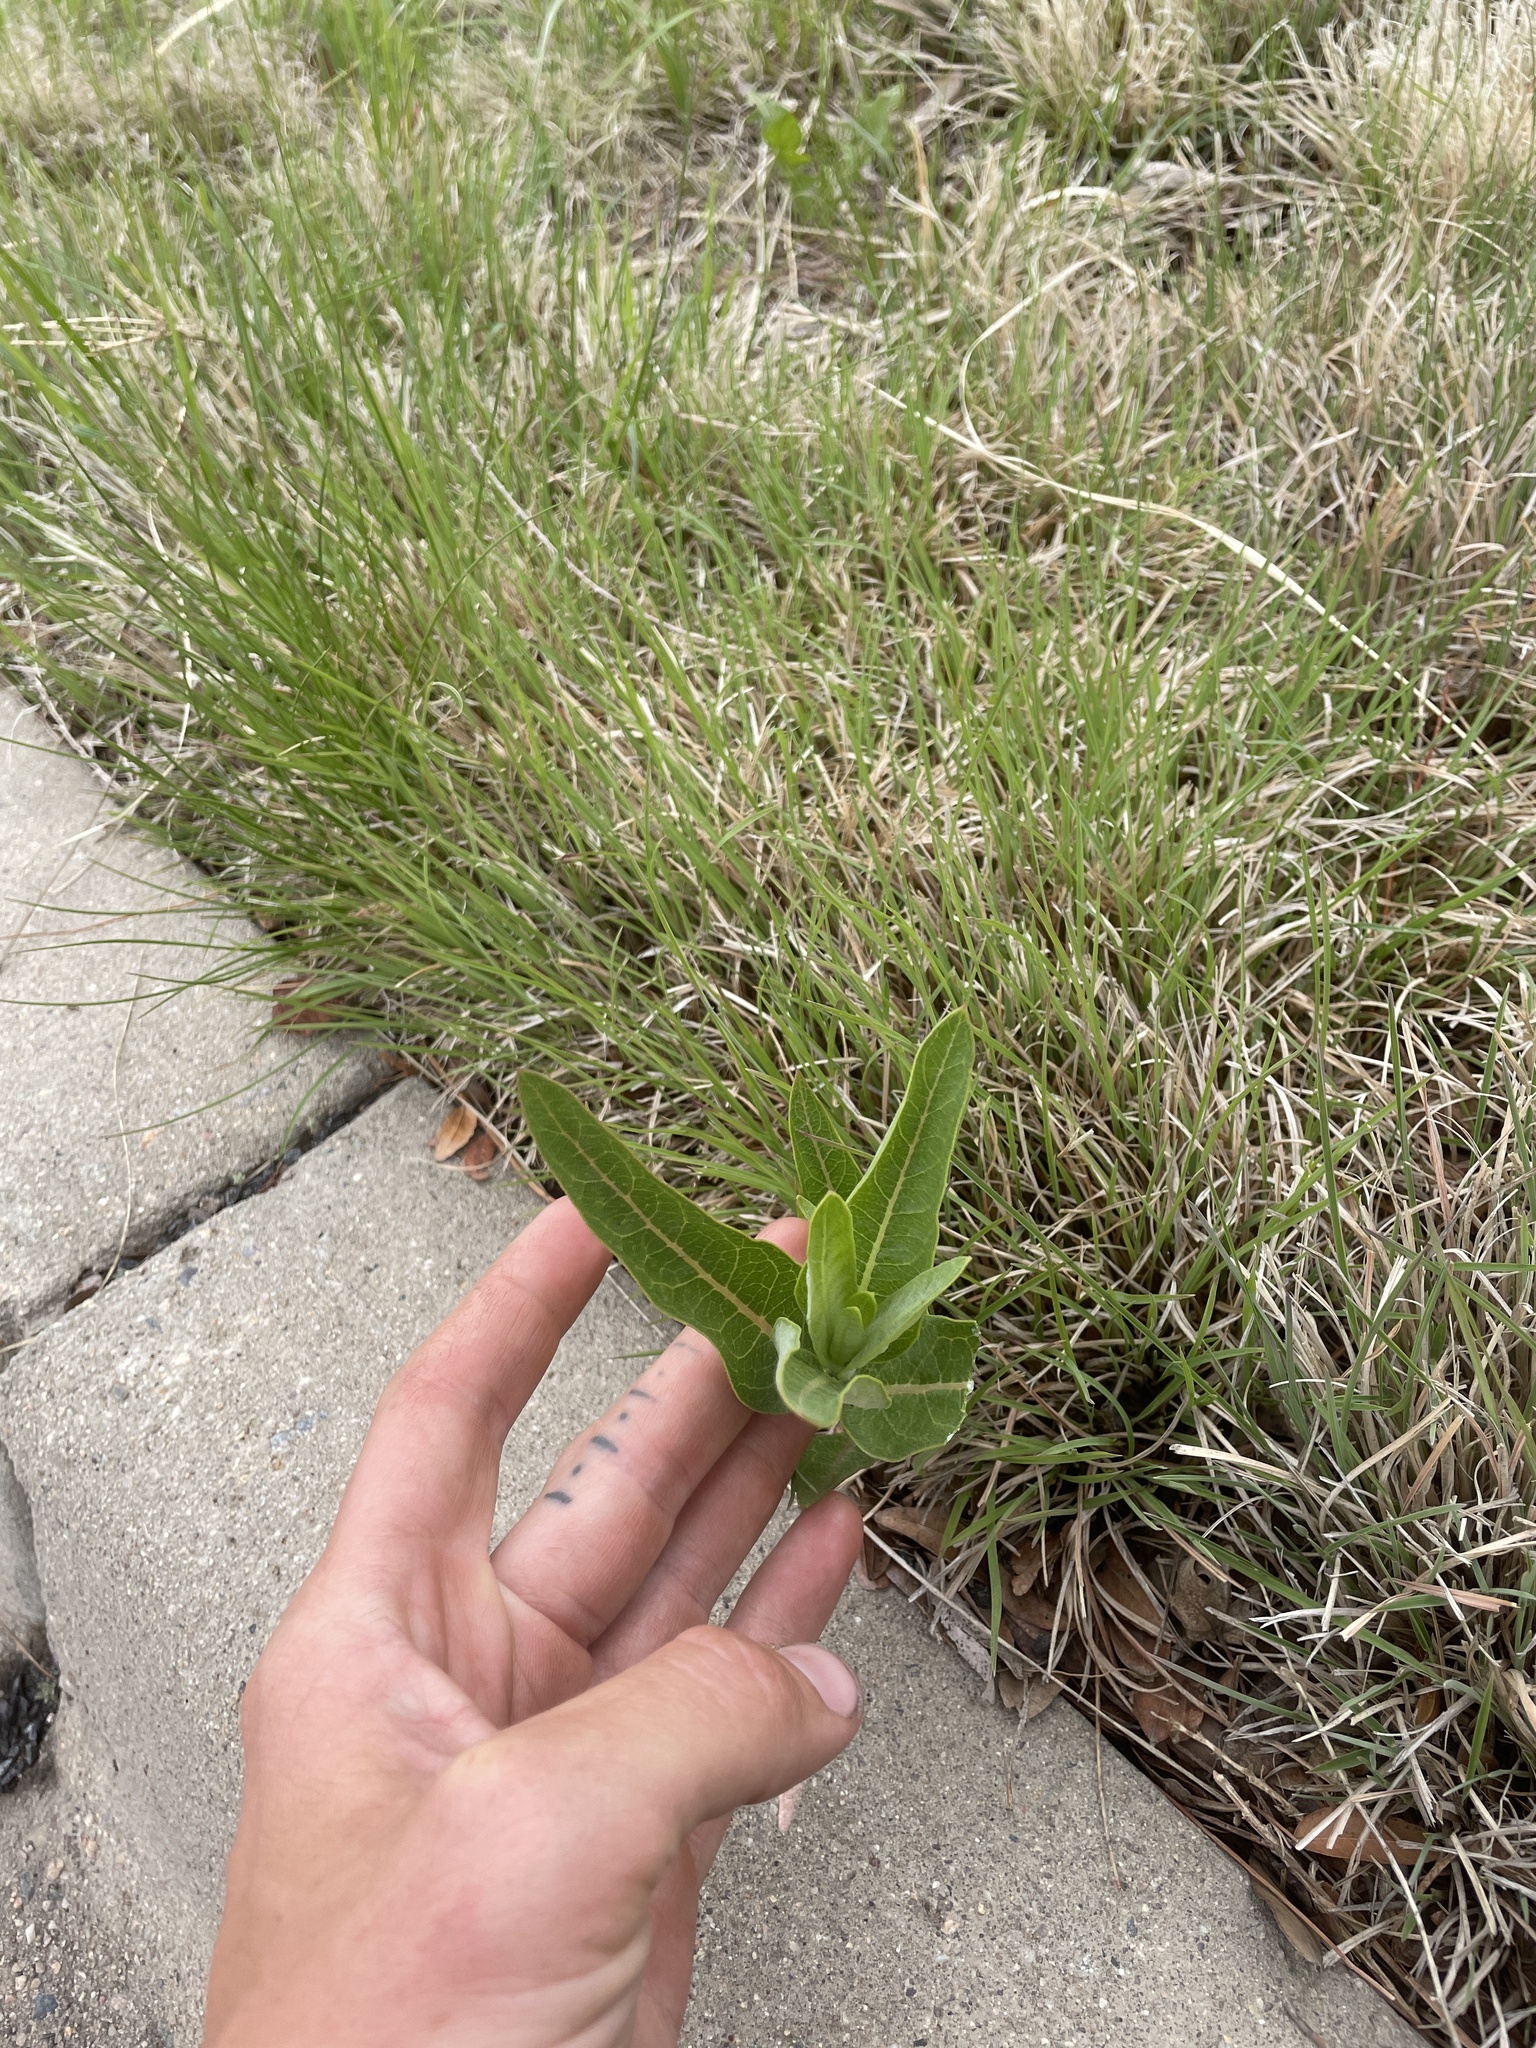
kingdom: Plantae
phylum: Tracheophyta
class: Magnoliopsida
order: Gentianales
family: Apocynaceae
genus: Asclepias
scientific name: Asclepias speciosa
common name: Showy milkweed
